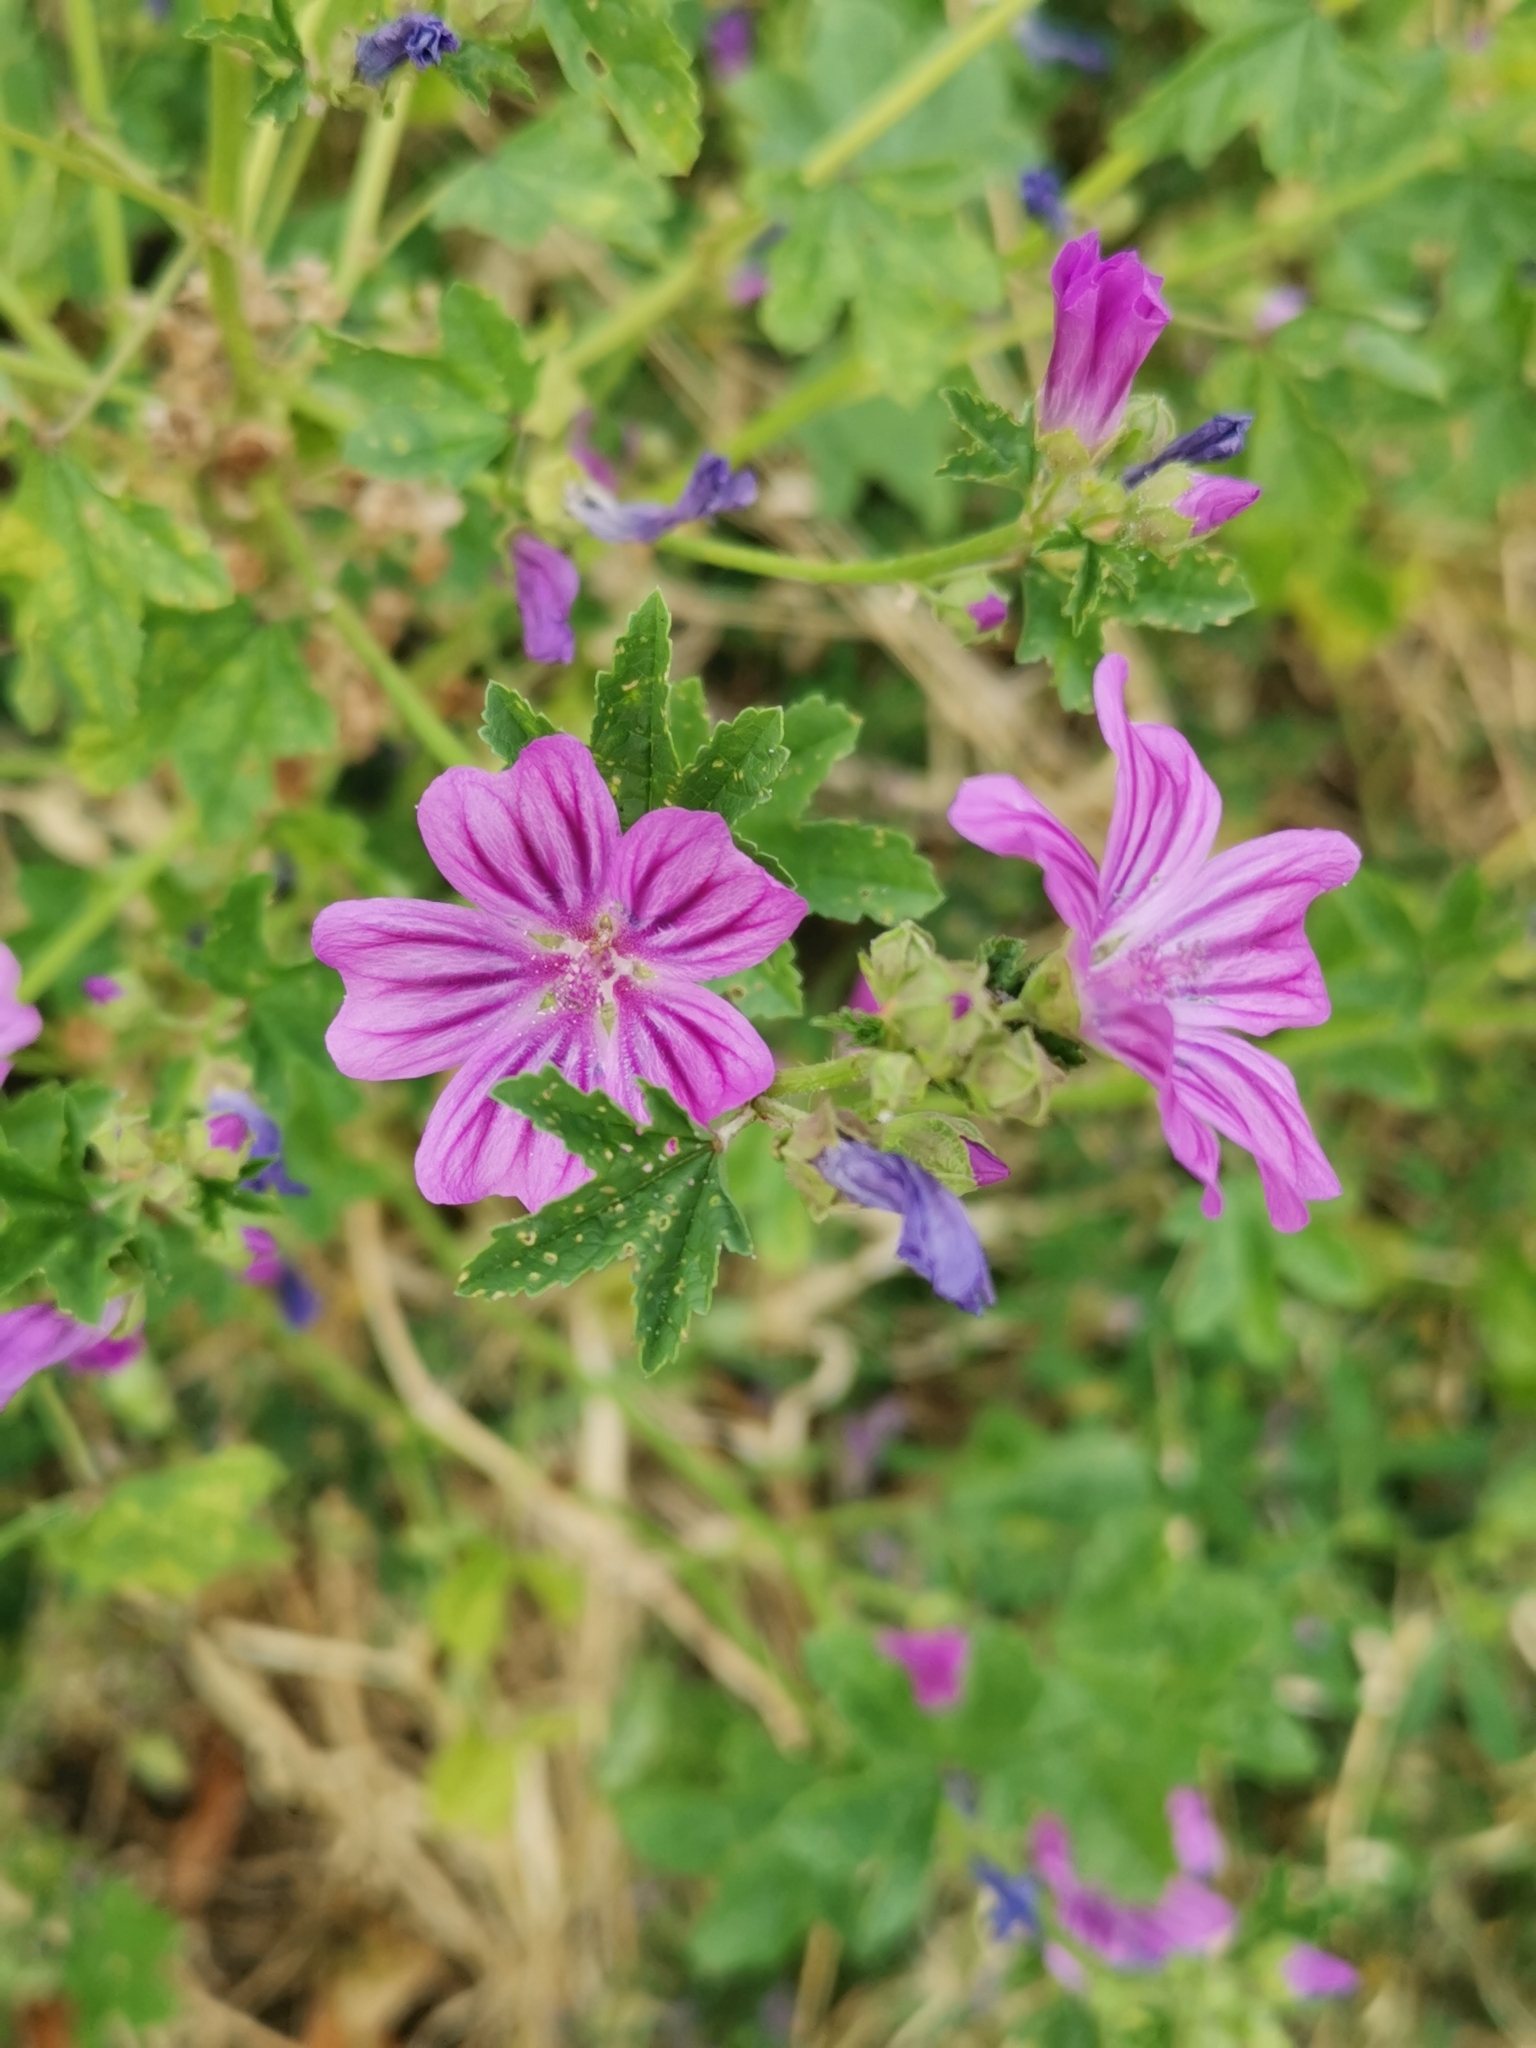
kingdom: Plantae
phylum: Tracheophyta
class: Magnoliopsida
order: Malvales
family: Malvaceae
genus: Malva
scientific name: Malva sylvestris
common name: Common mallow
